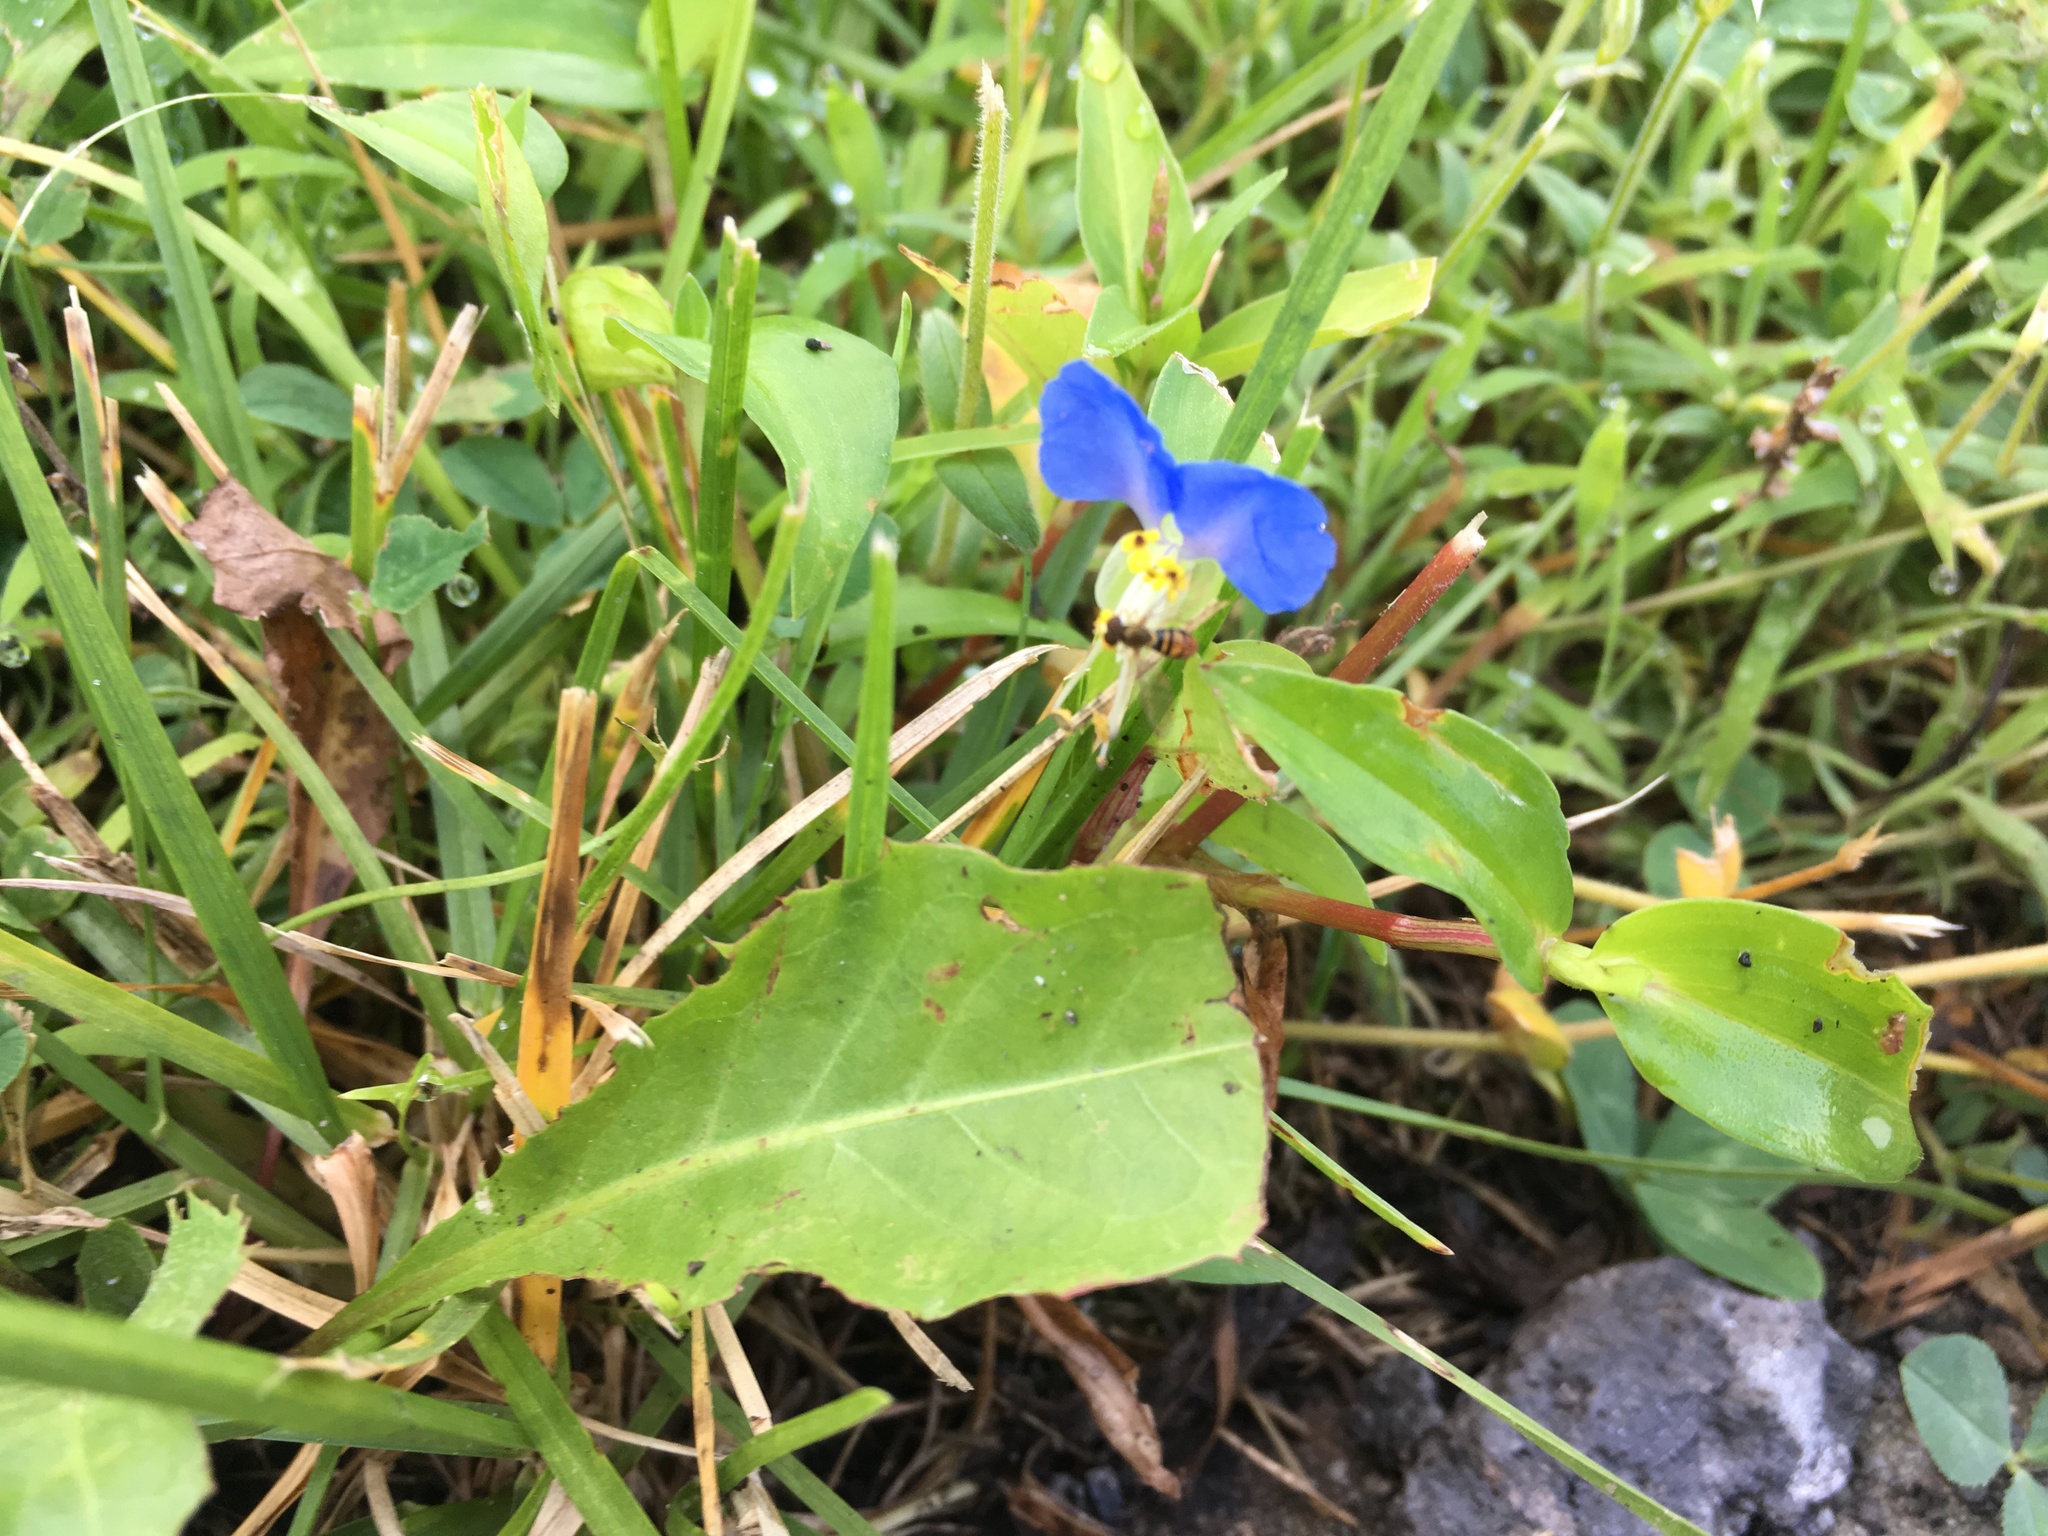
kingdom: Plantae
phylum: Tracheophyta
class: Liliopsida
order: Commelinales
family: Commelinaceae
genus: Commelina
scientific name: Commelina communis
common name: Asiatic dayflower
